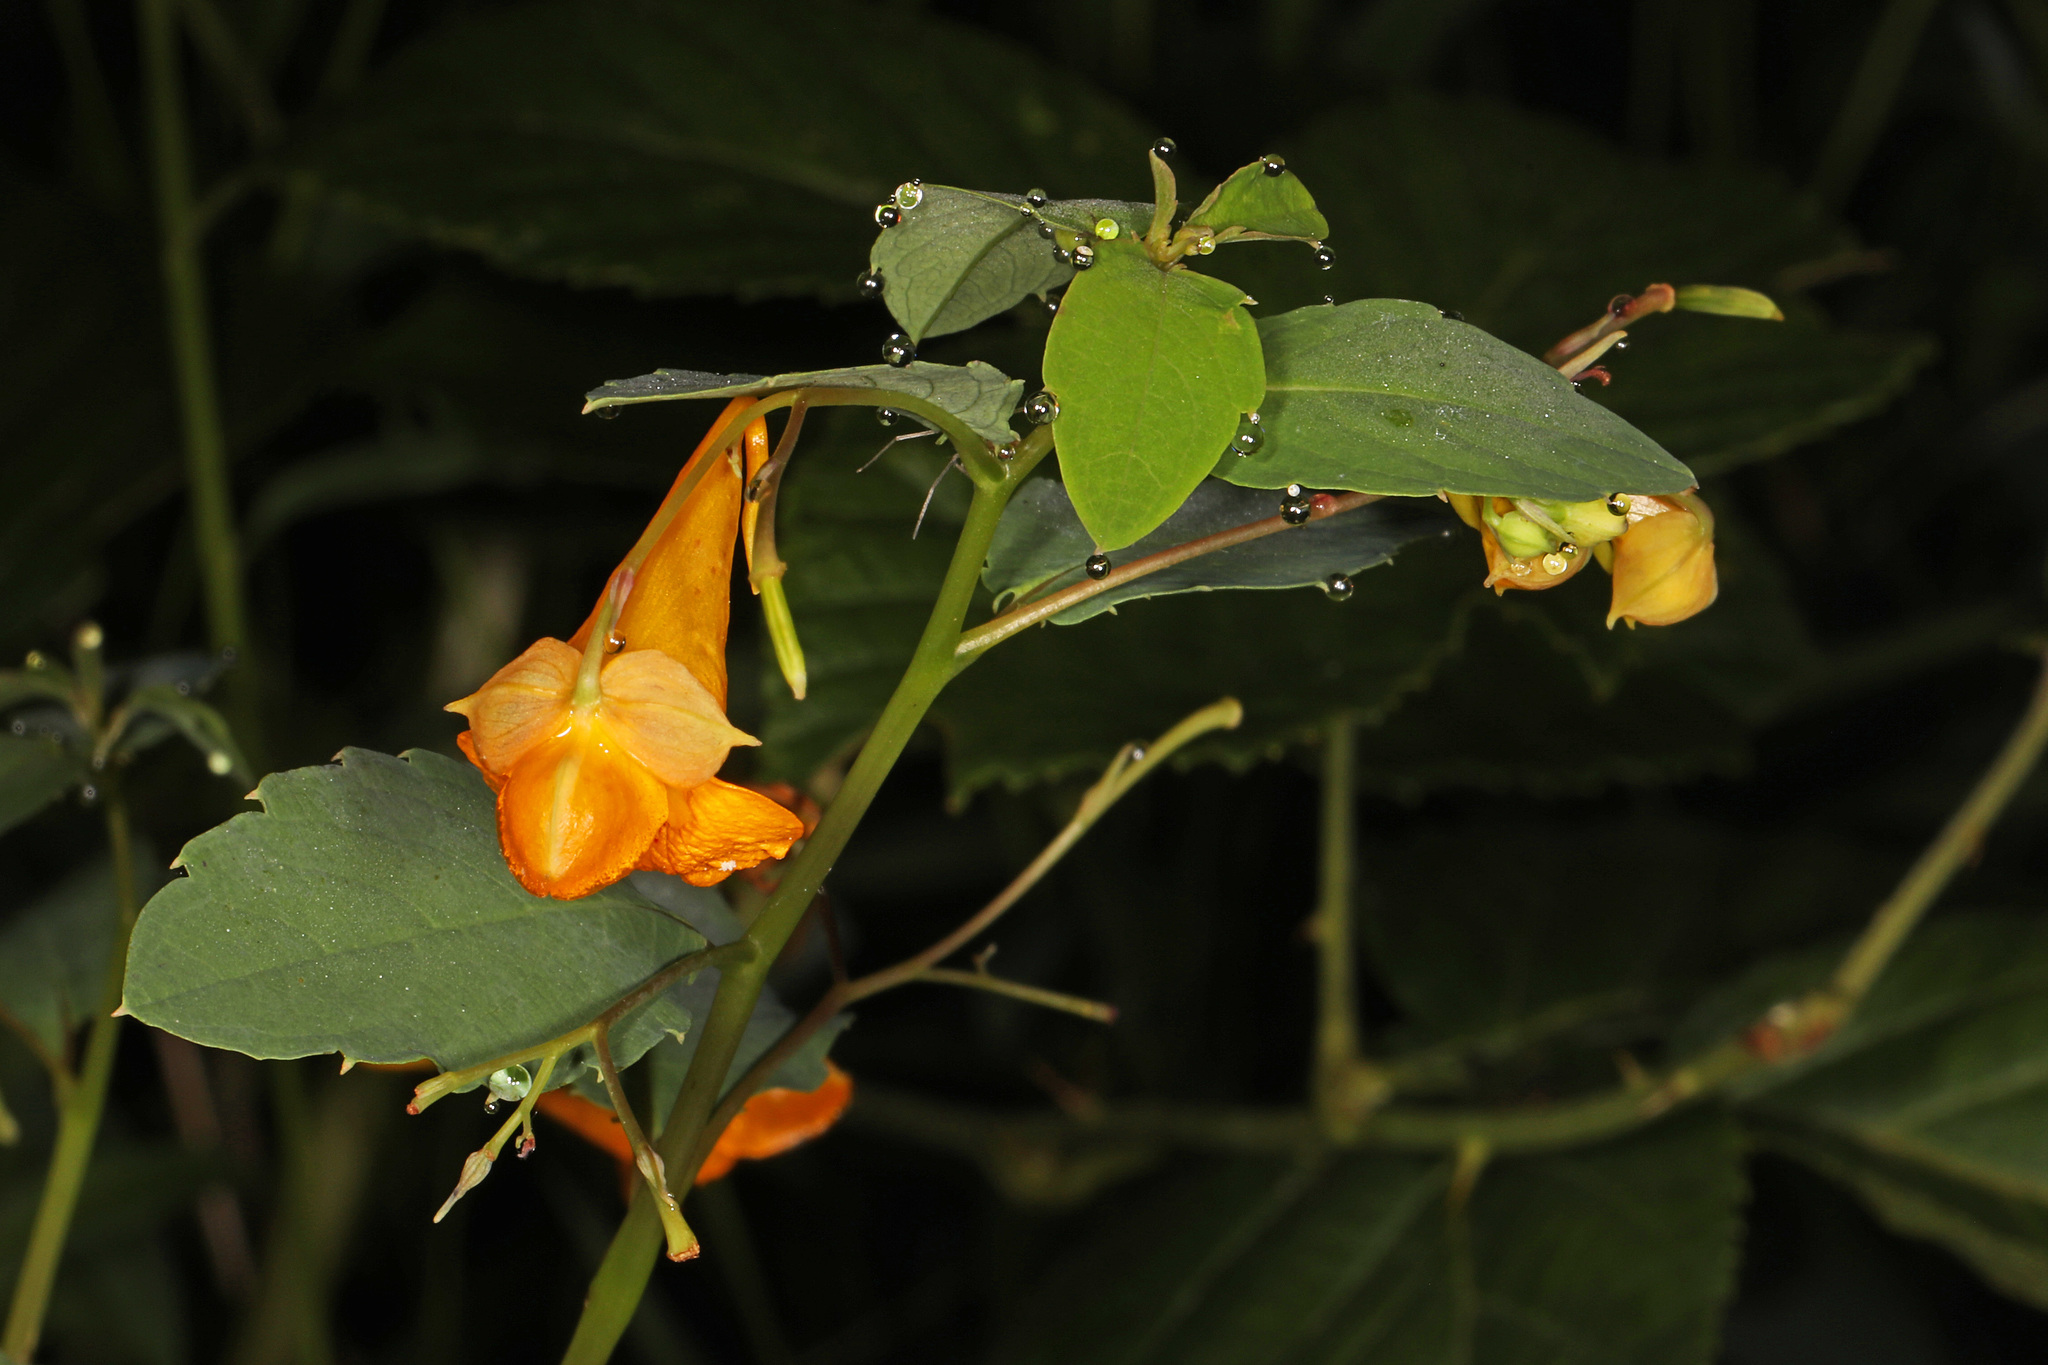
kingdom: Plantae
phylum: Tracheophyta
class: Magnoliopsida
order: Ericales
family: Balsaminaceae
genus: Impatiens
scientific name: Impatiens capensis
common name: Orange balsam
